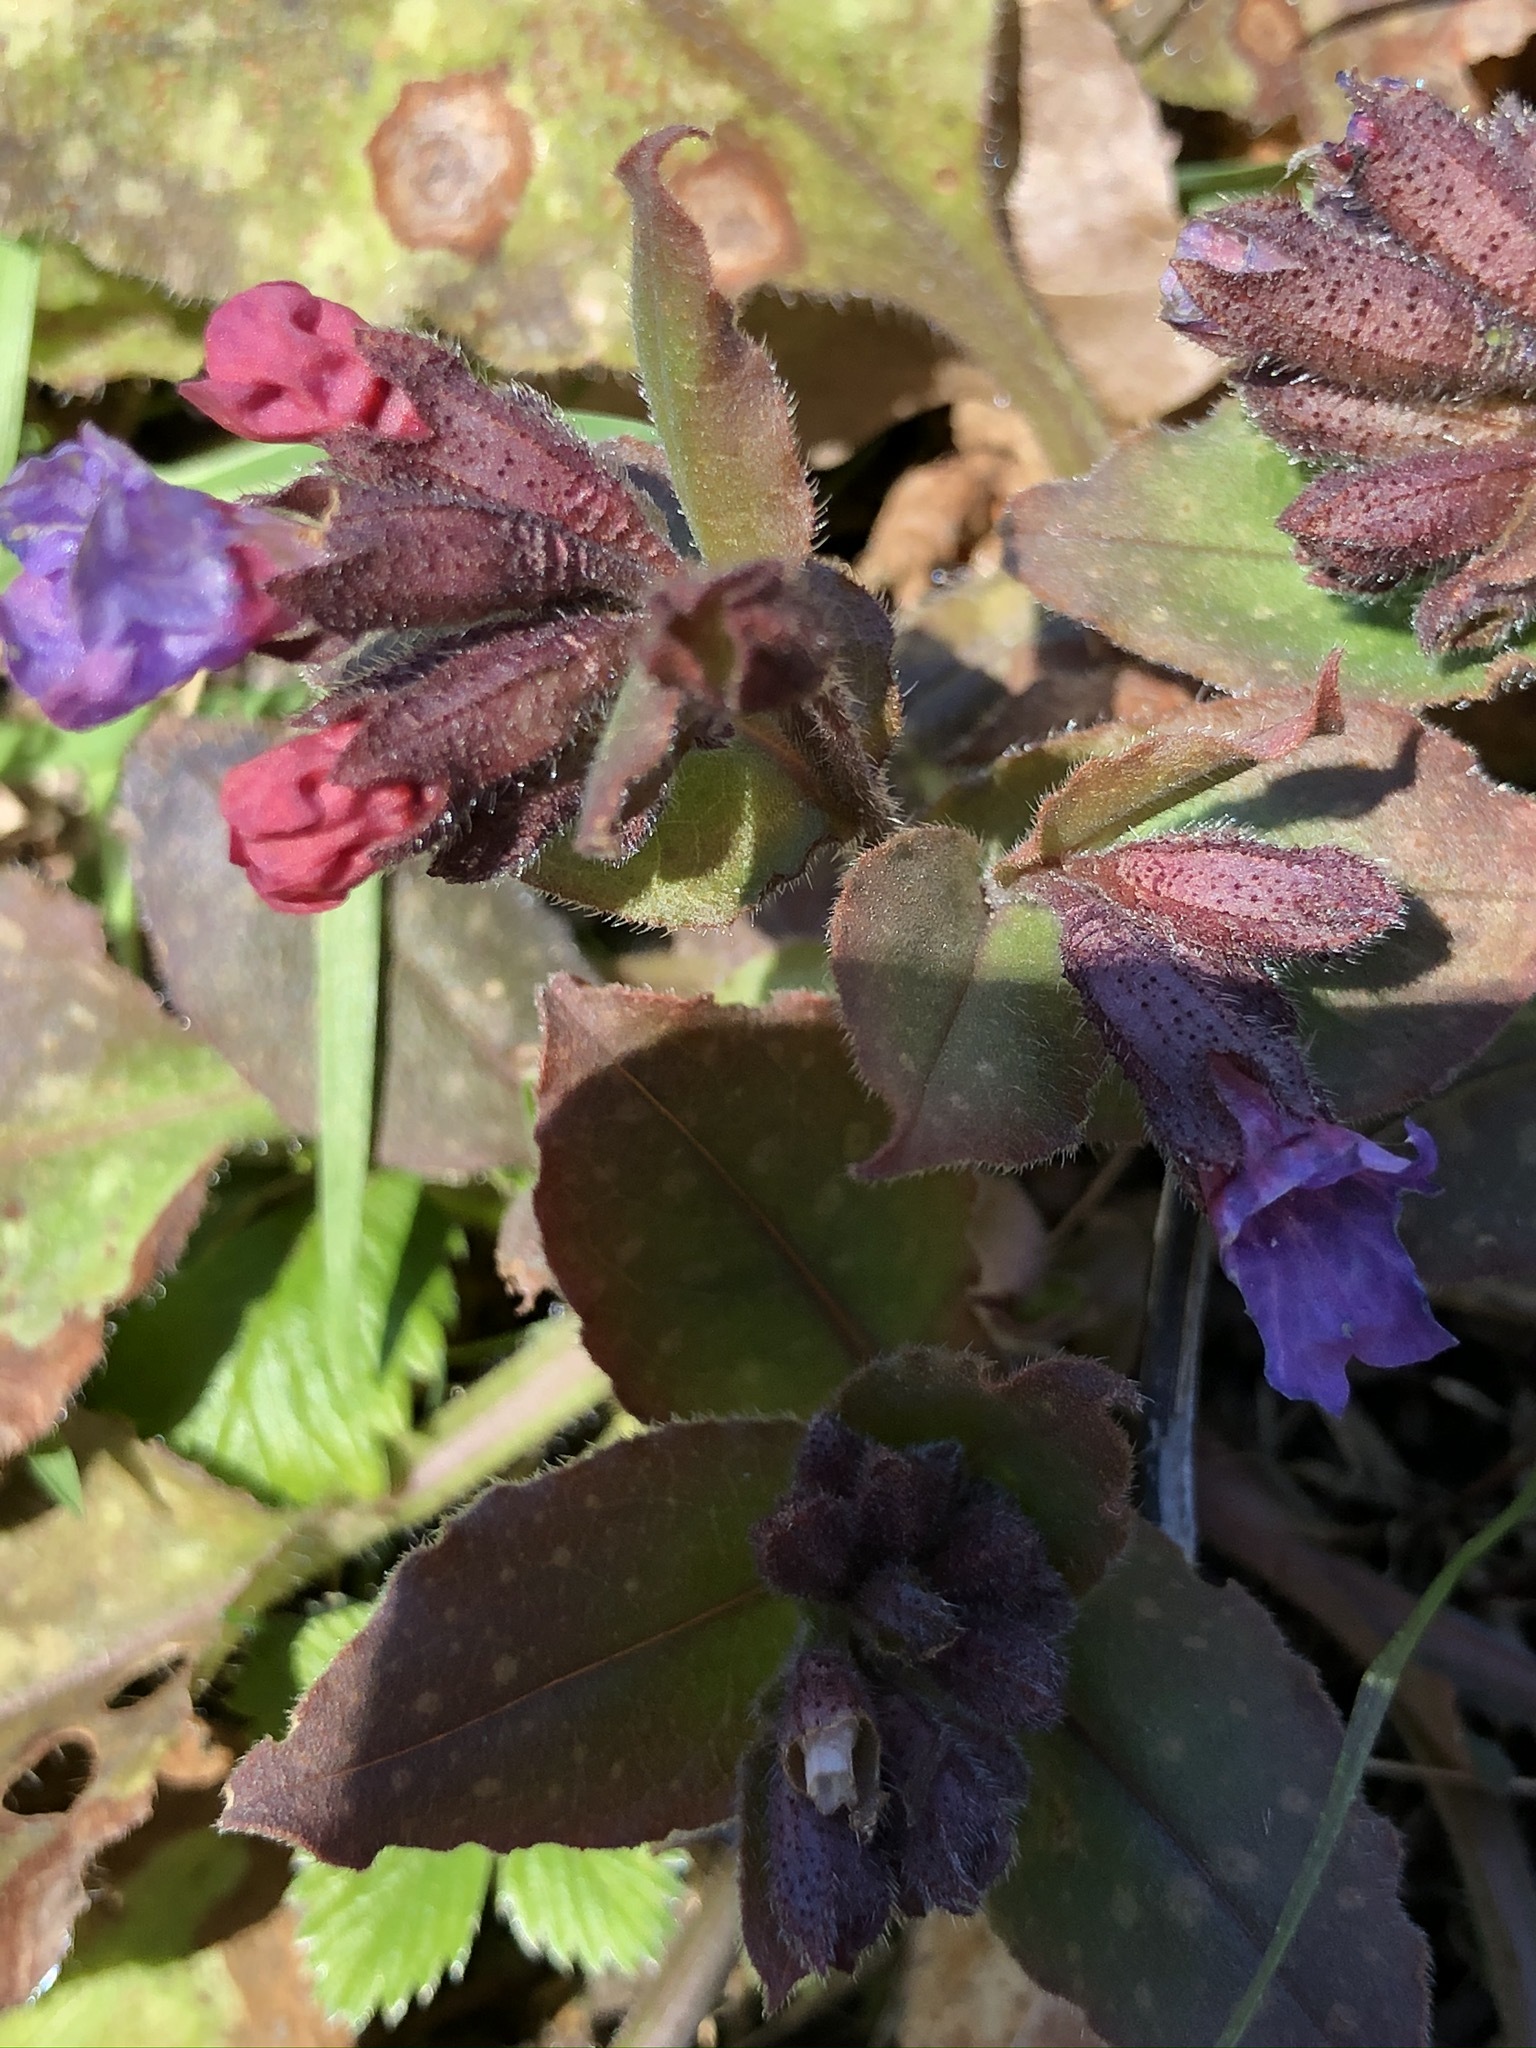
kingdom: Plantae
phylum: Tracheophyta
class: Magnoliopsida
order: Boraginales
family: Boraginaceae
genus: Pulmonaria
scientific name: Pulmonaria officinalis
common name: Lungwort
